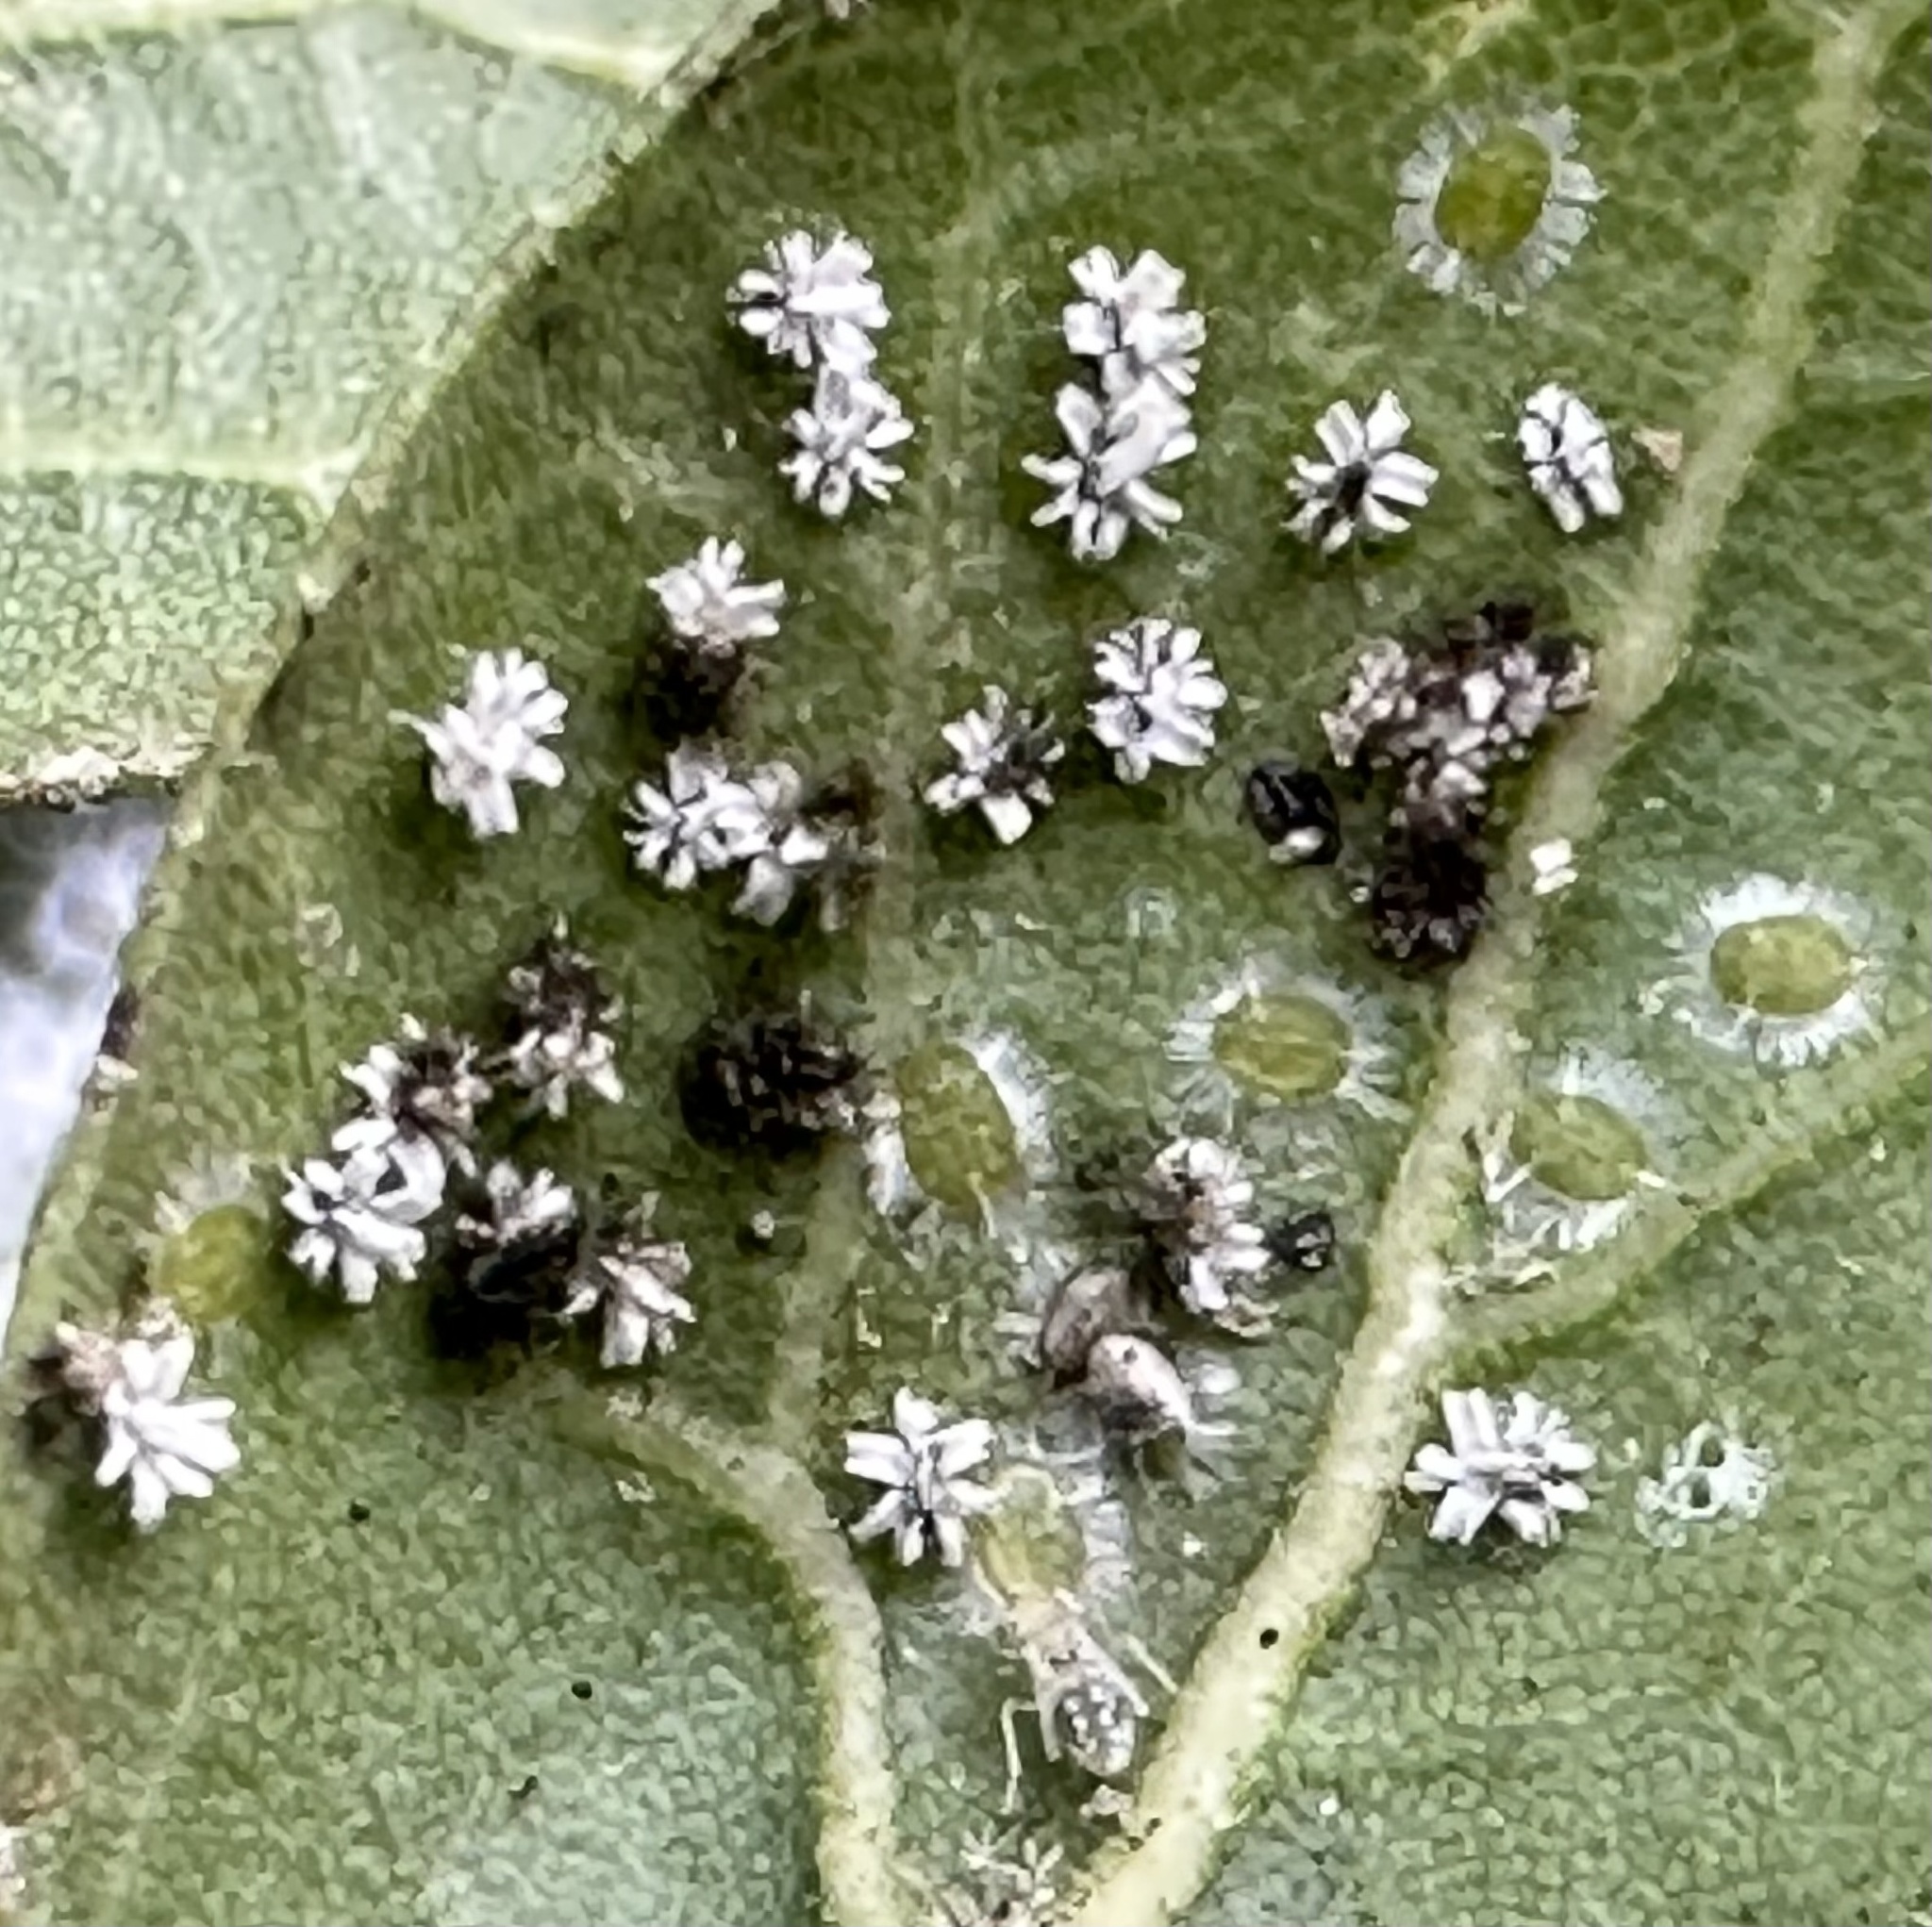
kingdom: Animalia
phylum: Arthropoda
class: Insecta
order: Hemiptera
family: Aleyrodidae
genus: Aleuroplatus
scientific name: Aleuroplatus coronata
